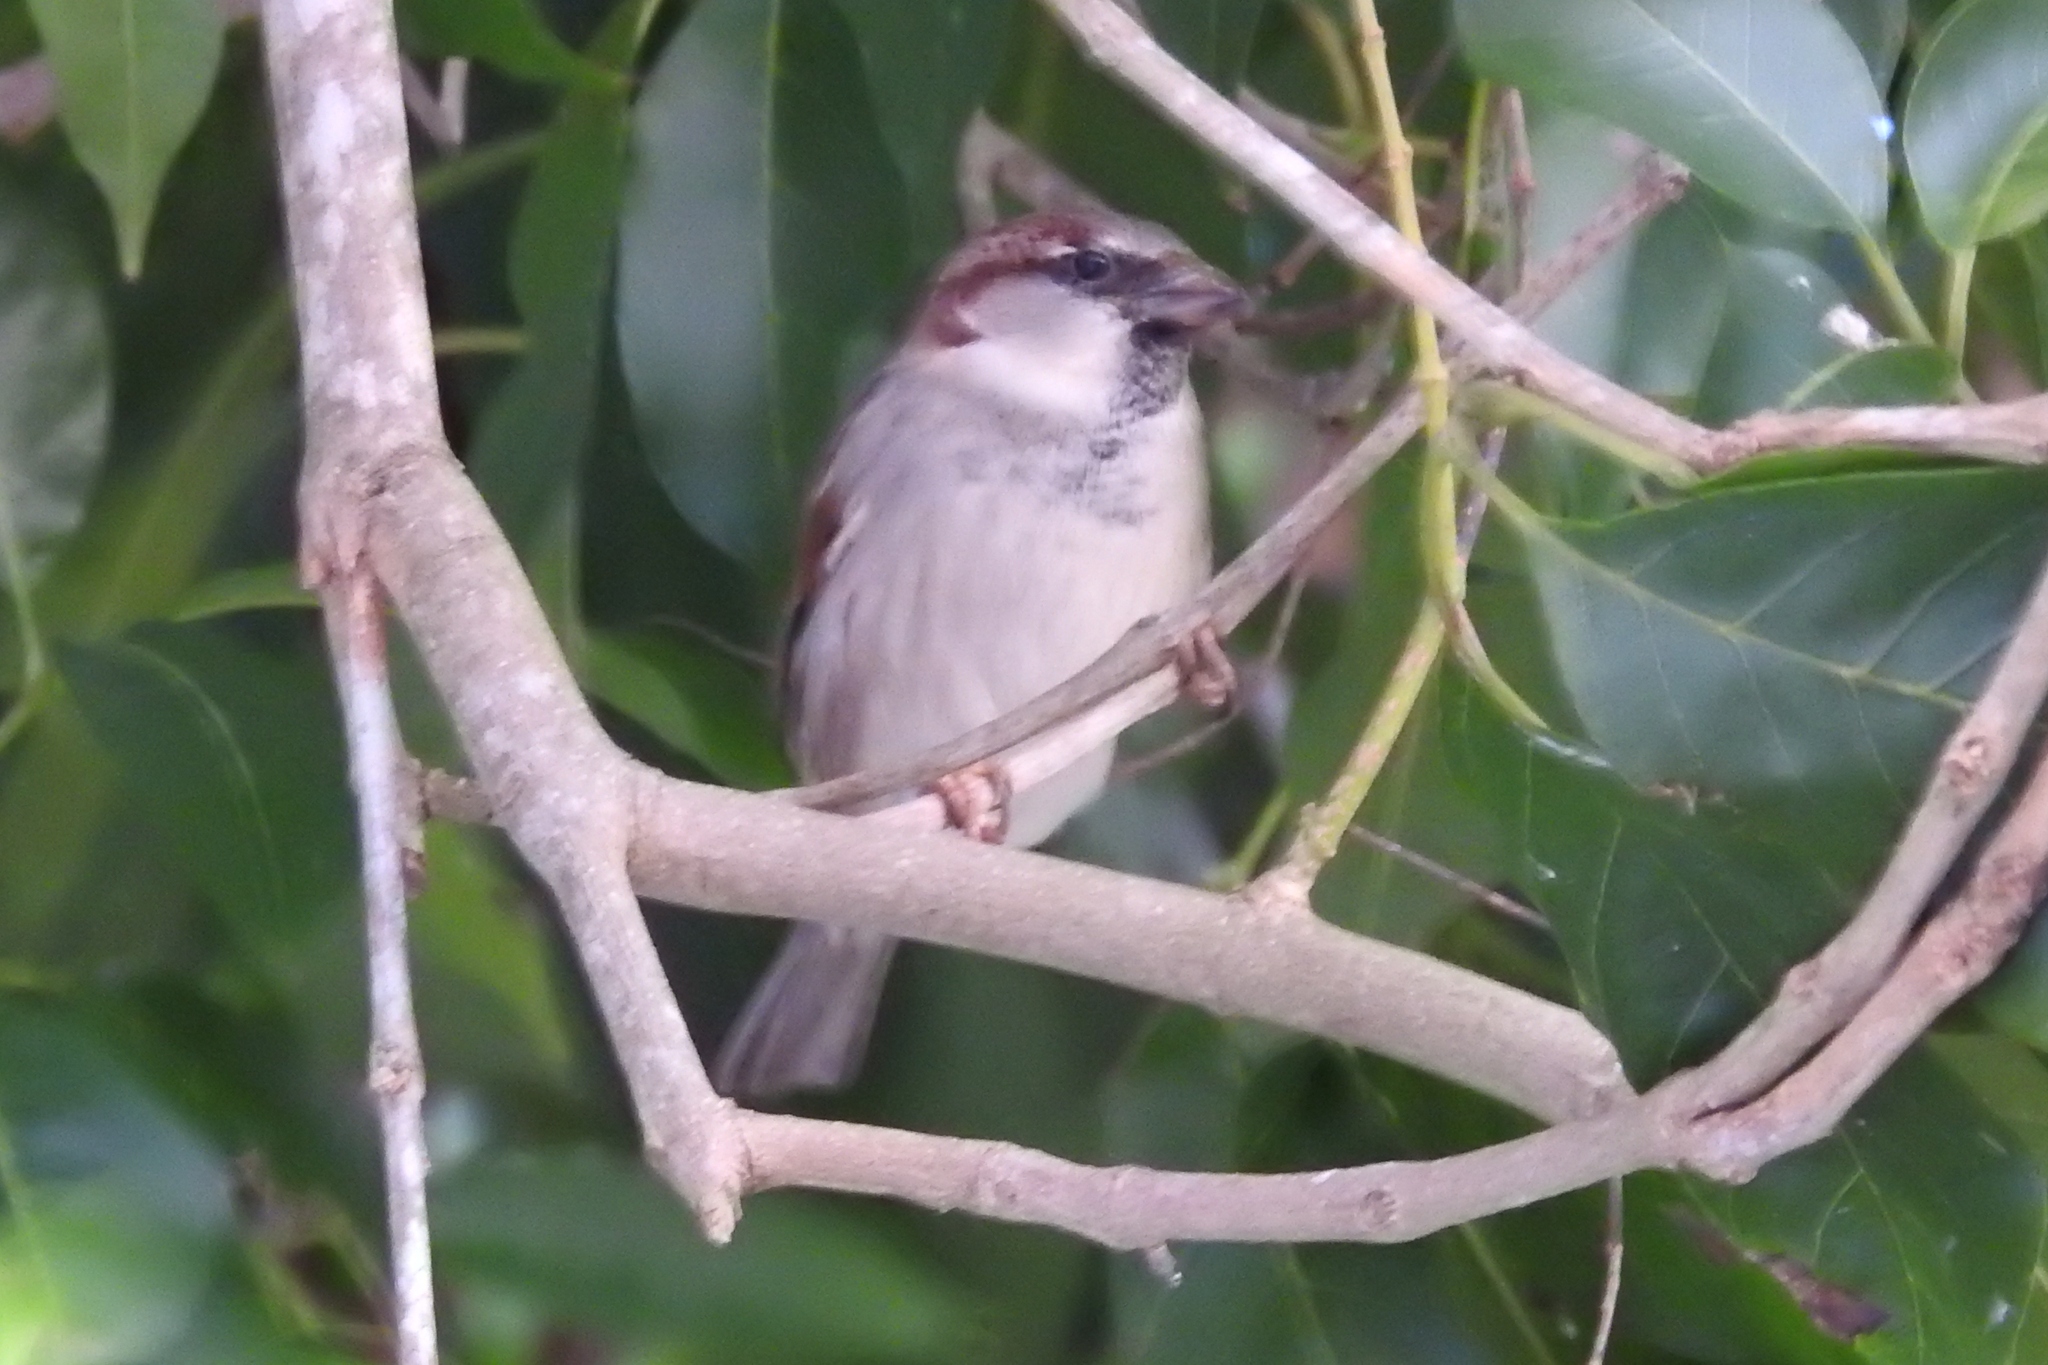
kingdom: Animalia
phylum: Chordata
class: Aves
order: Passeriformes
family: Passeridae
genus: Passer
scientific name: Passer domesticus
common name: House sparrow
